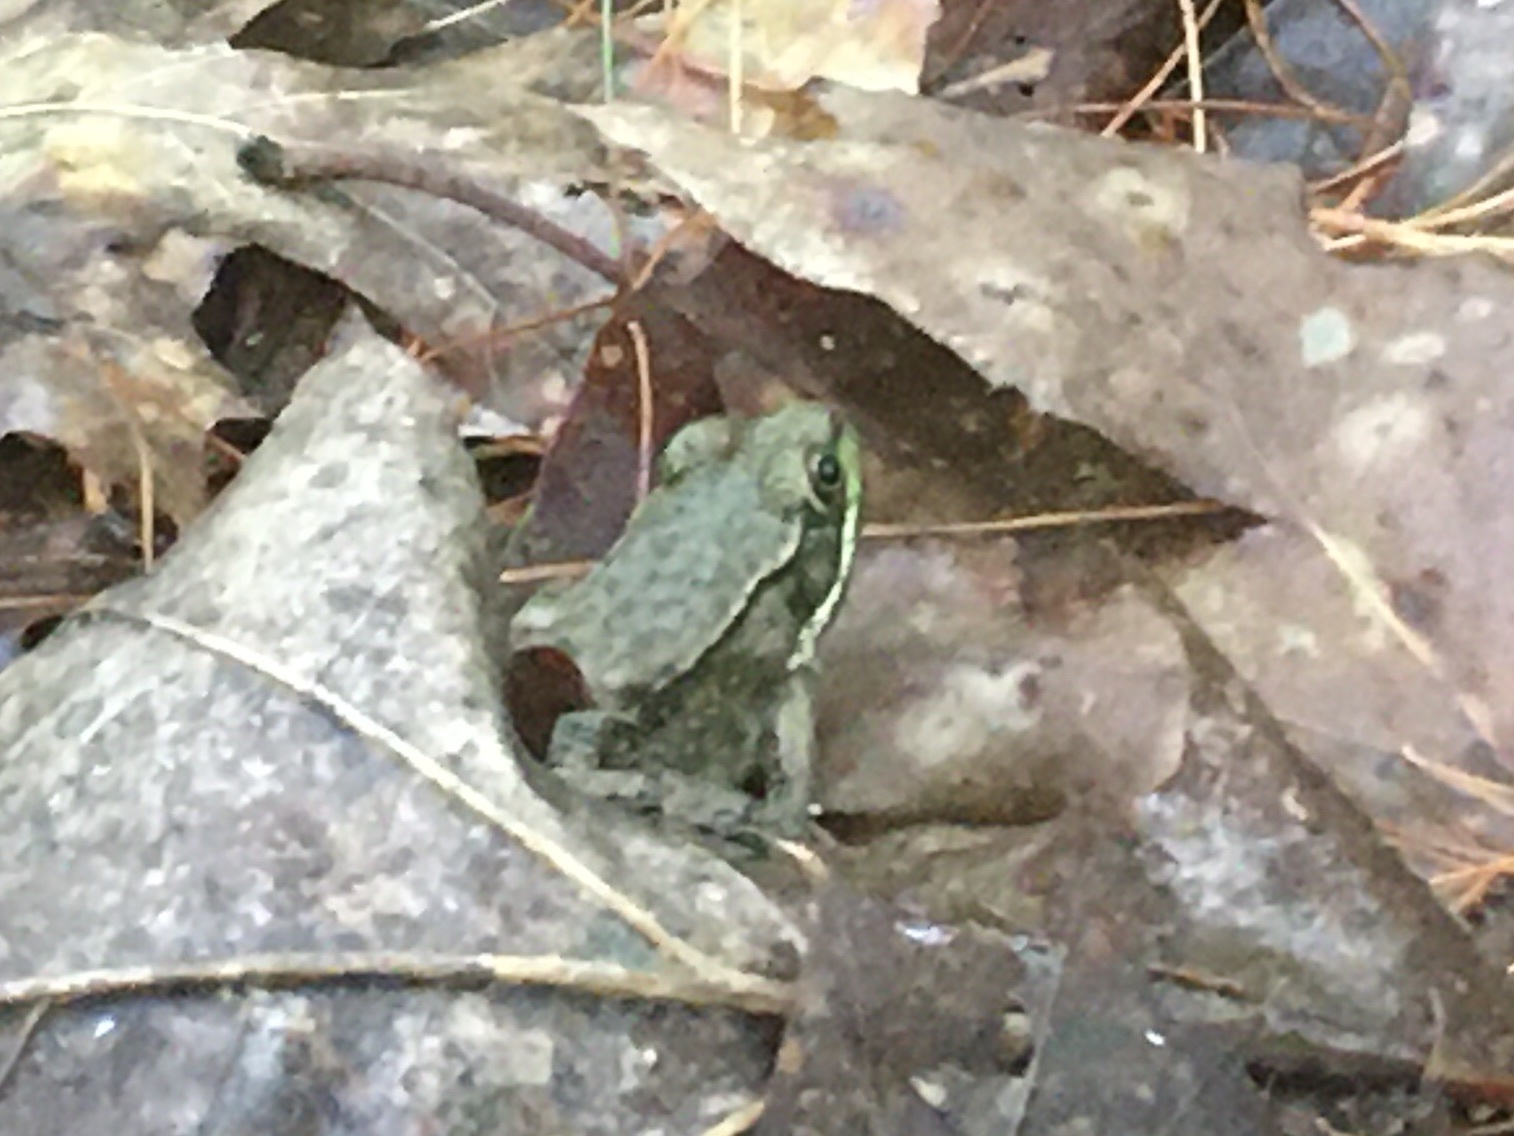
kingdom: Animalia
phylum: Chordata
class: Amphibia
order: Anura
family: Ranidae
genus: Lithobates
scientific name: Lithobates clamitans
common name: Green frog
